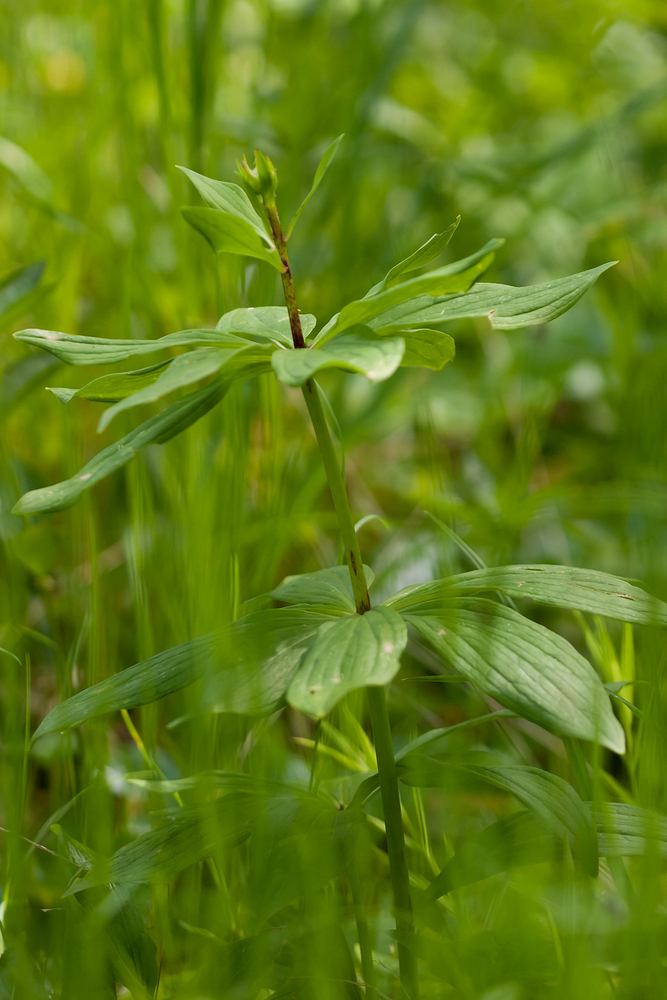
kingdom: Plantae
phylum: Tracheophyta
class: Liliopsida
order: Liliales
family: Liliaceae
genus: Lilium
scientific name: Lilium martagon
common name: Martagon lily
